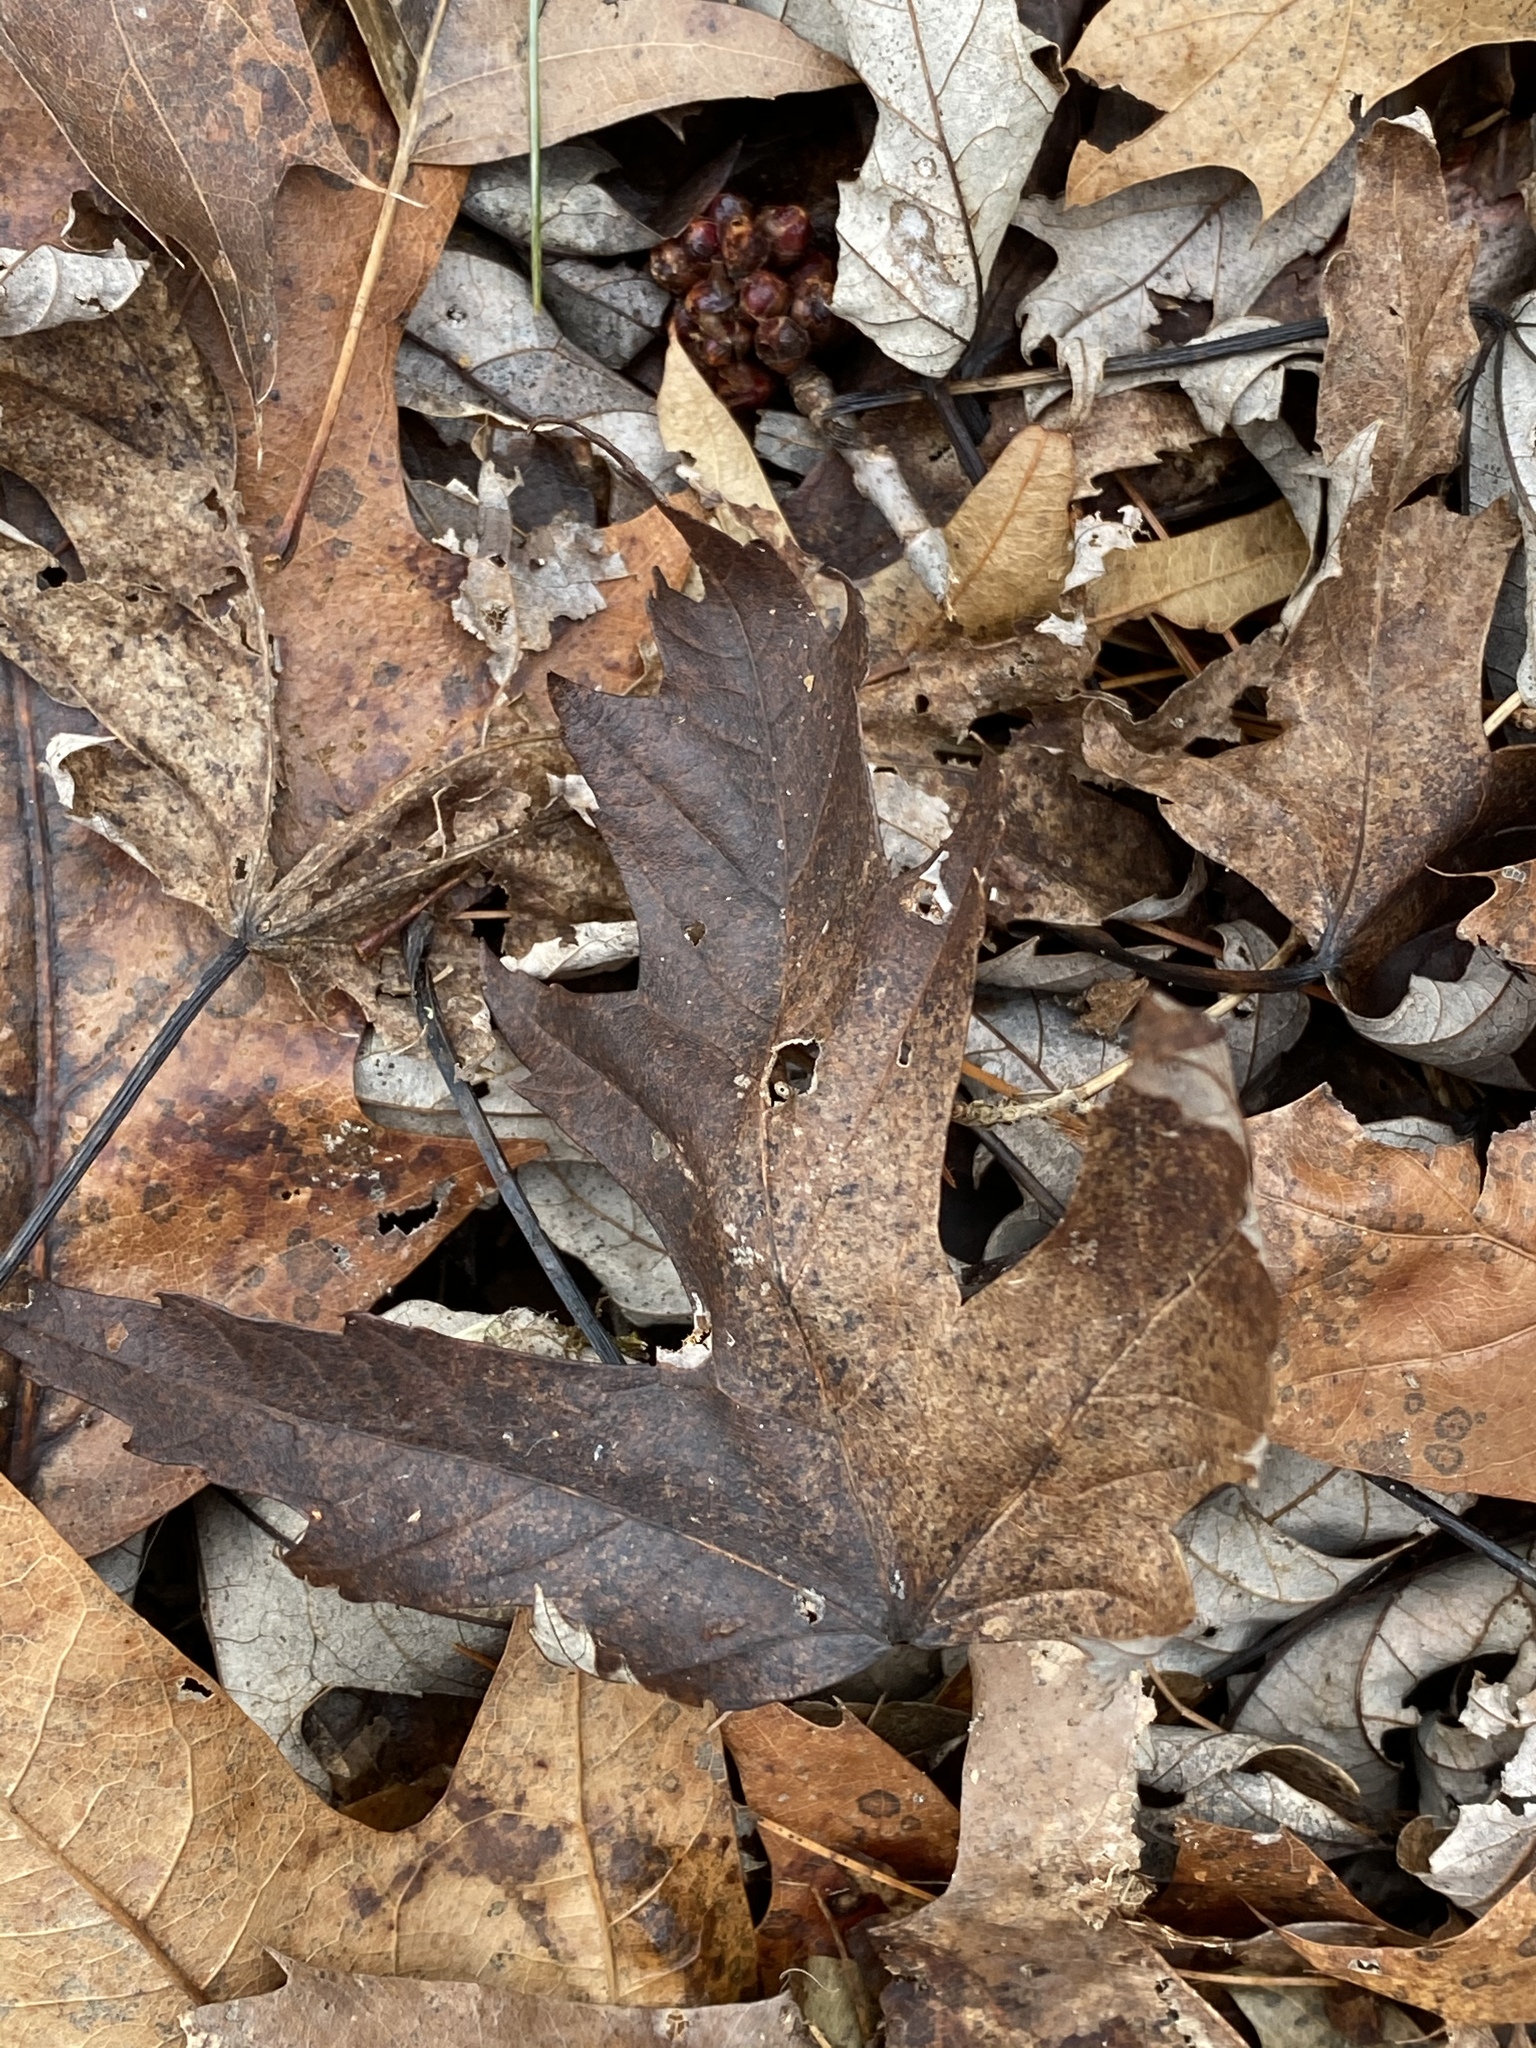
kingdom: Plantae
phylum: Tracheophyta
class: Magnoliopsida
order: Sapindales
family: Sapindaceae
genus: Acer
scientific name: Acer saccharinum
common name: Silver maple
